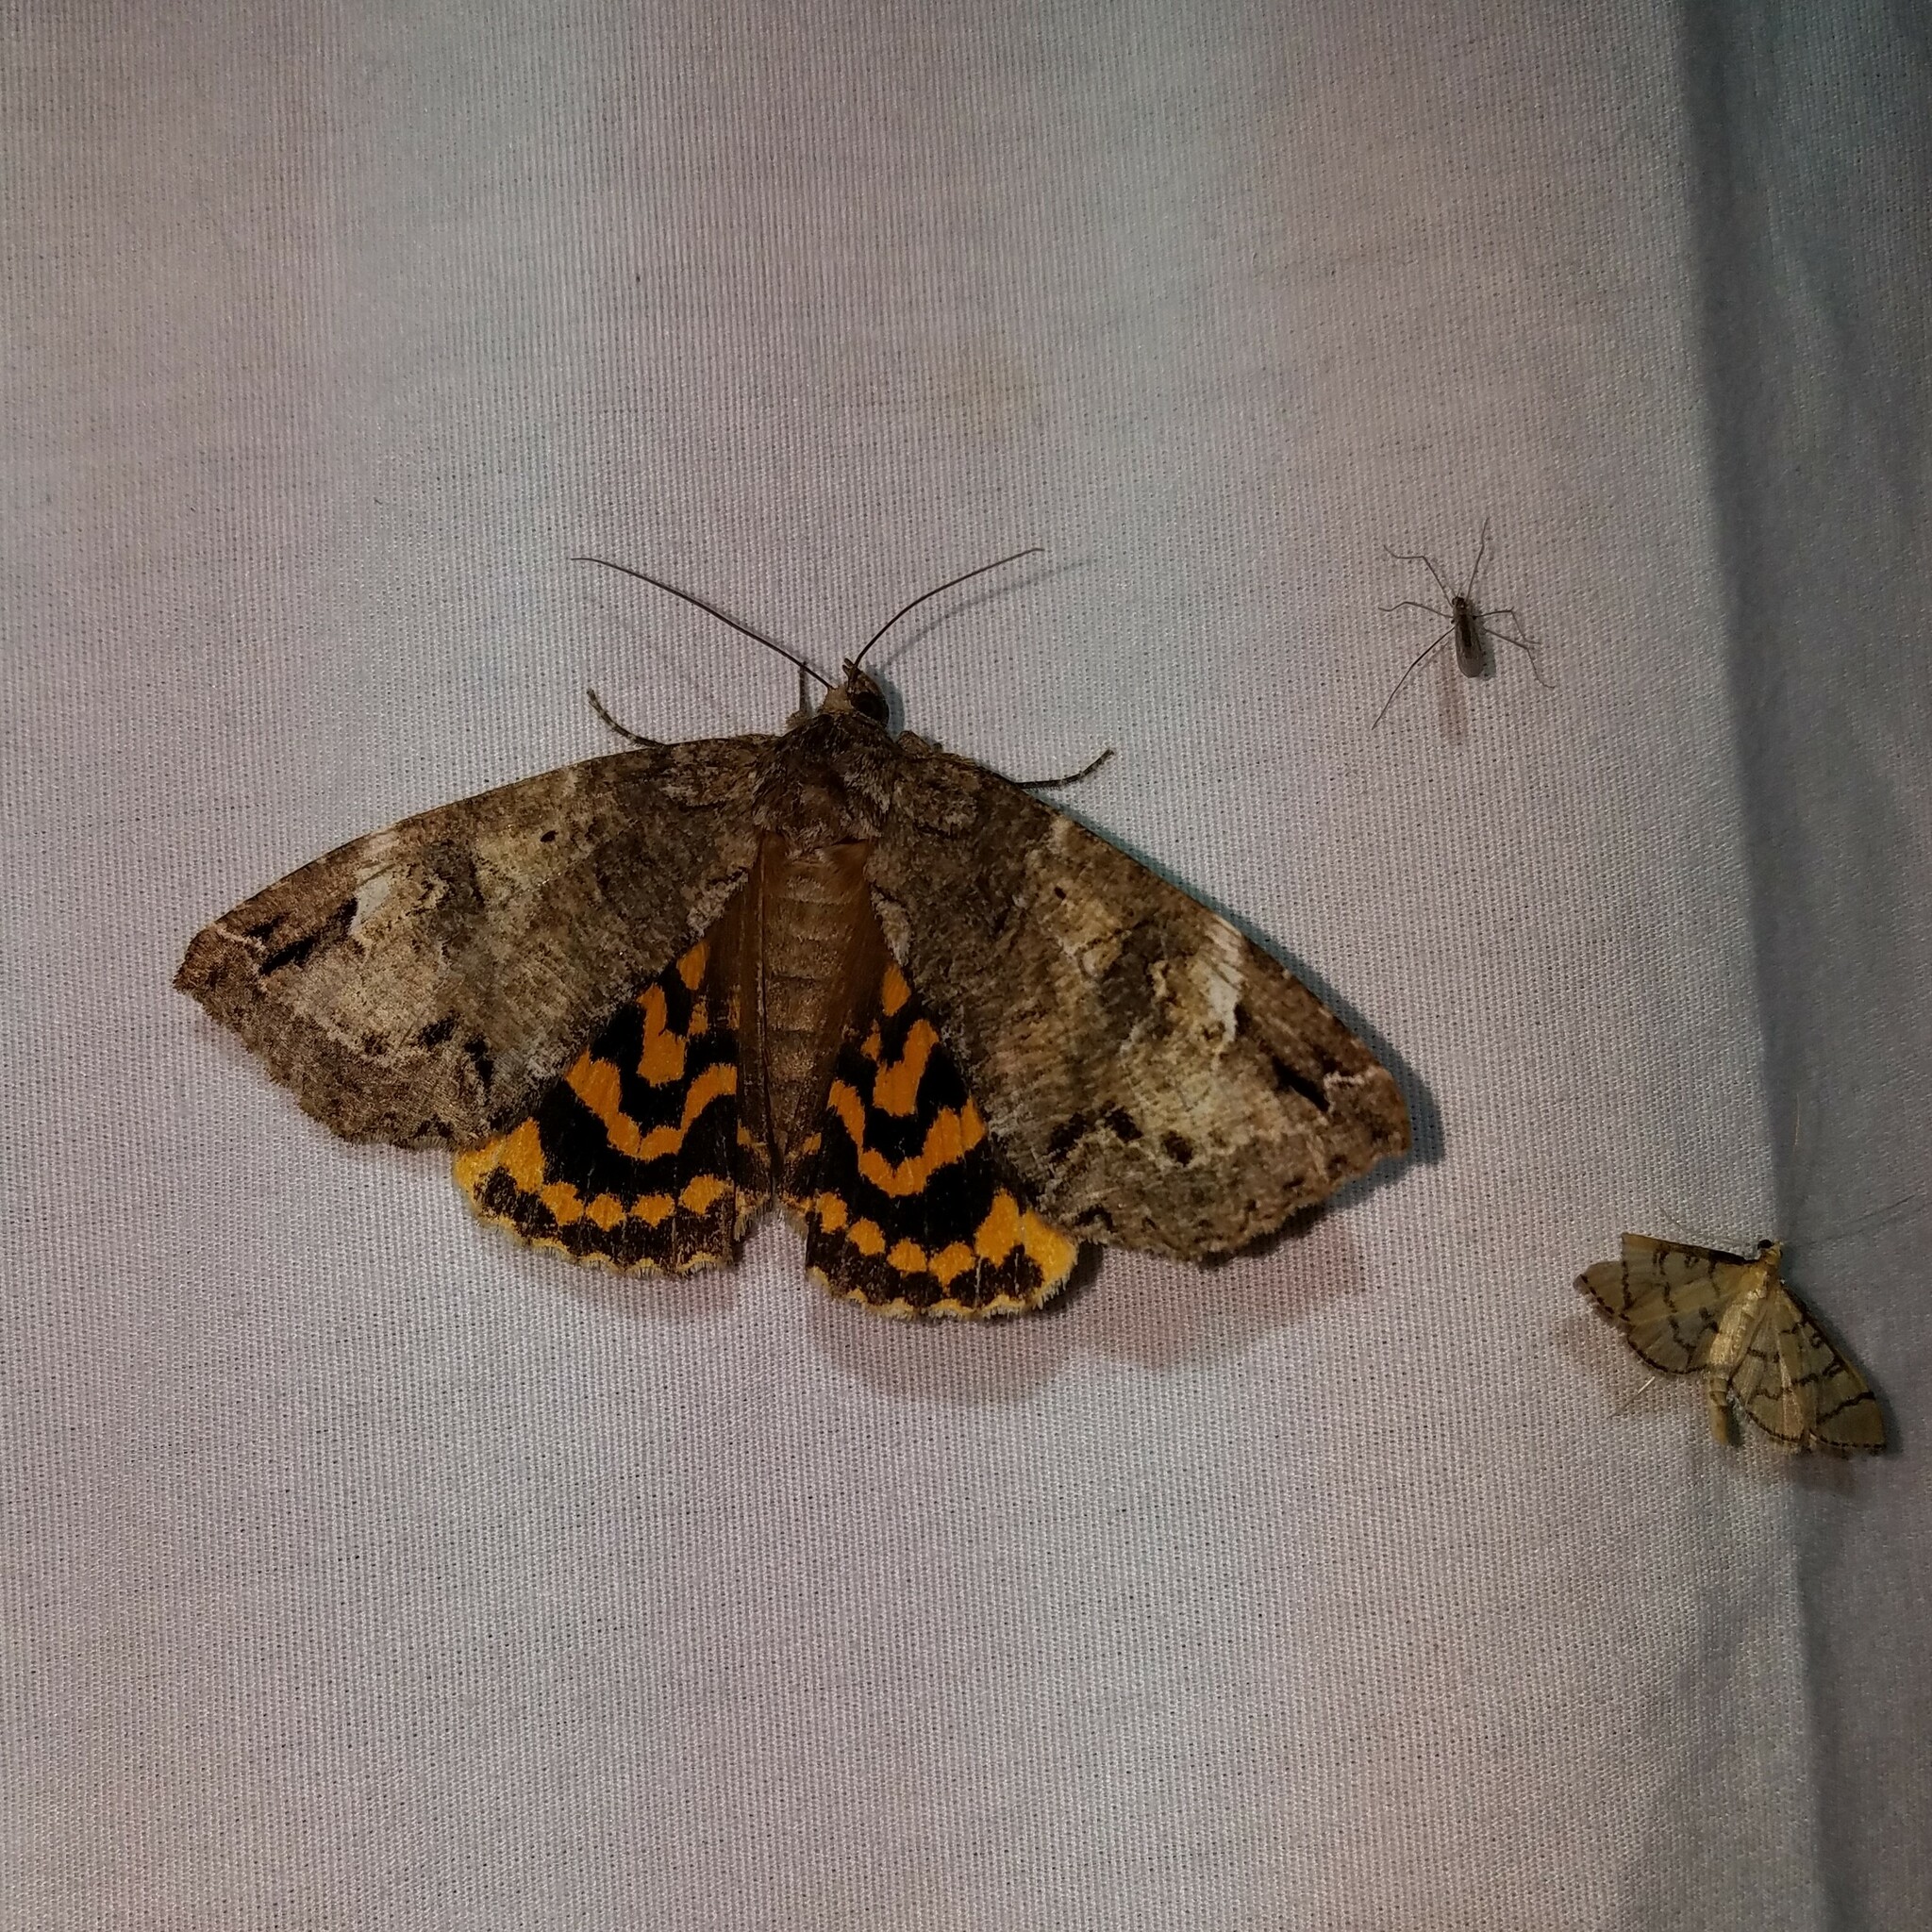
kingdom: Animalia
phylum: Arthropoda
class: Insecta
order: Lepidoptera
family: Erebidae
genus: Euparthenos
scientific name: Euparthenos nubilis
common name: Locust underwing
